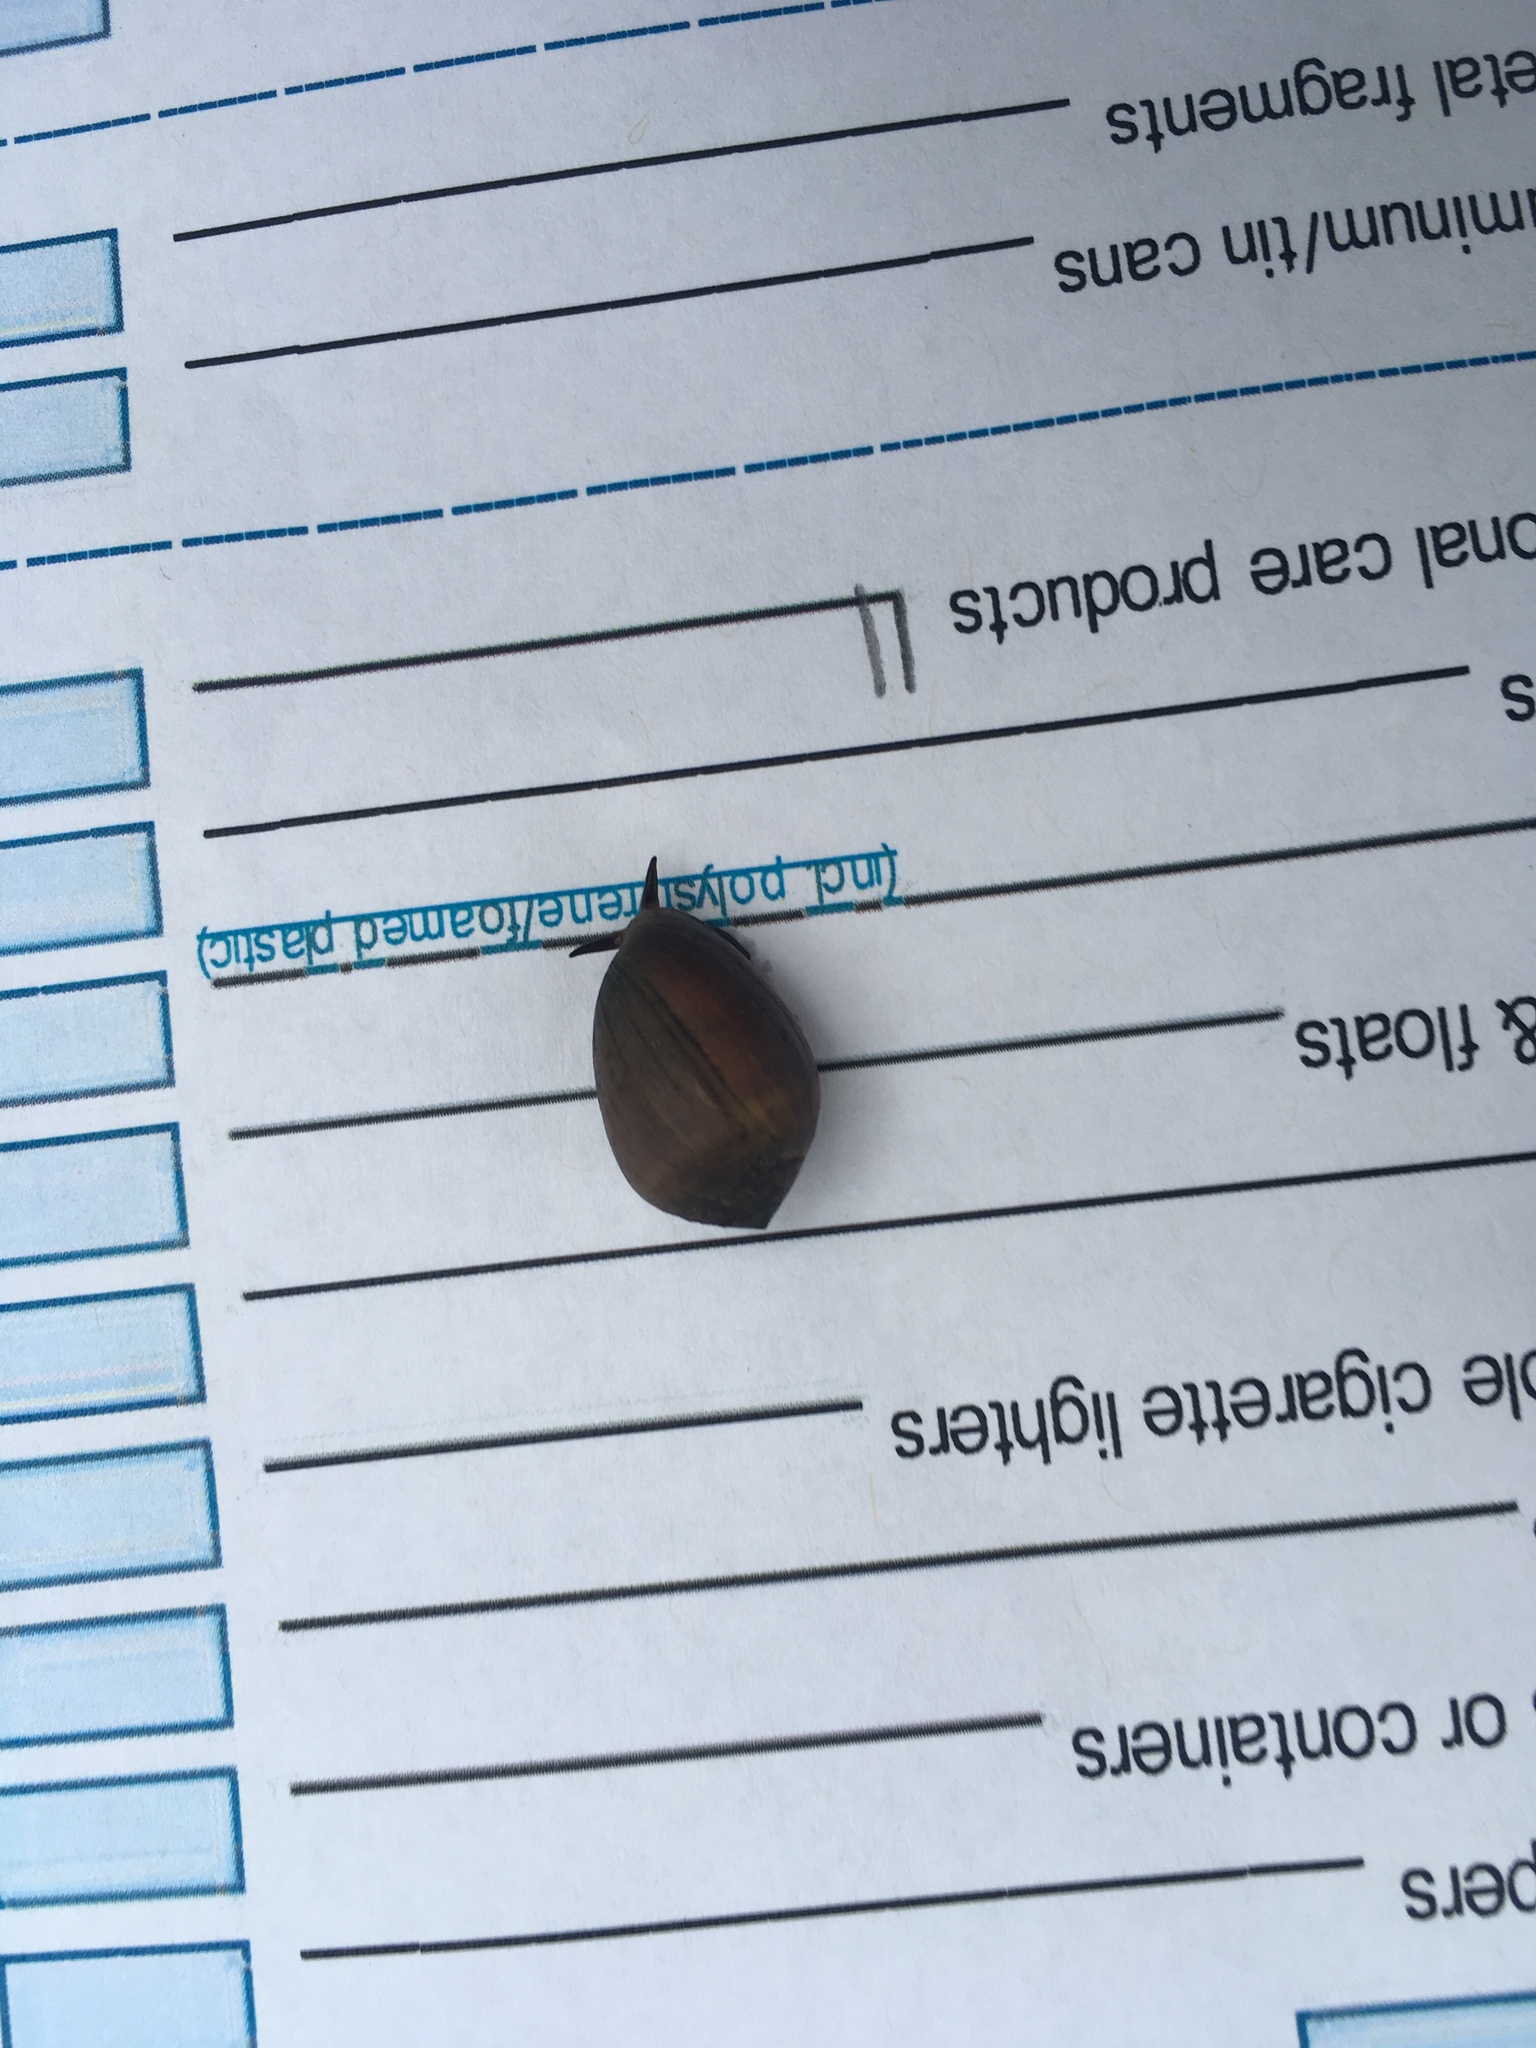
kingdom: Animalia
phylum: Mollusca
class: Gastropoda
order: Ellobiida
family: Ellobiidae
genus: Melampus
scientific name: Melampus coffea
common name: Coffee bean snail
